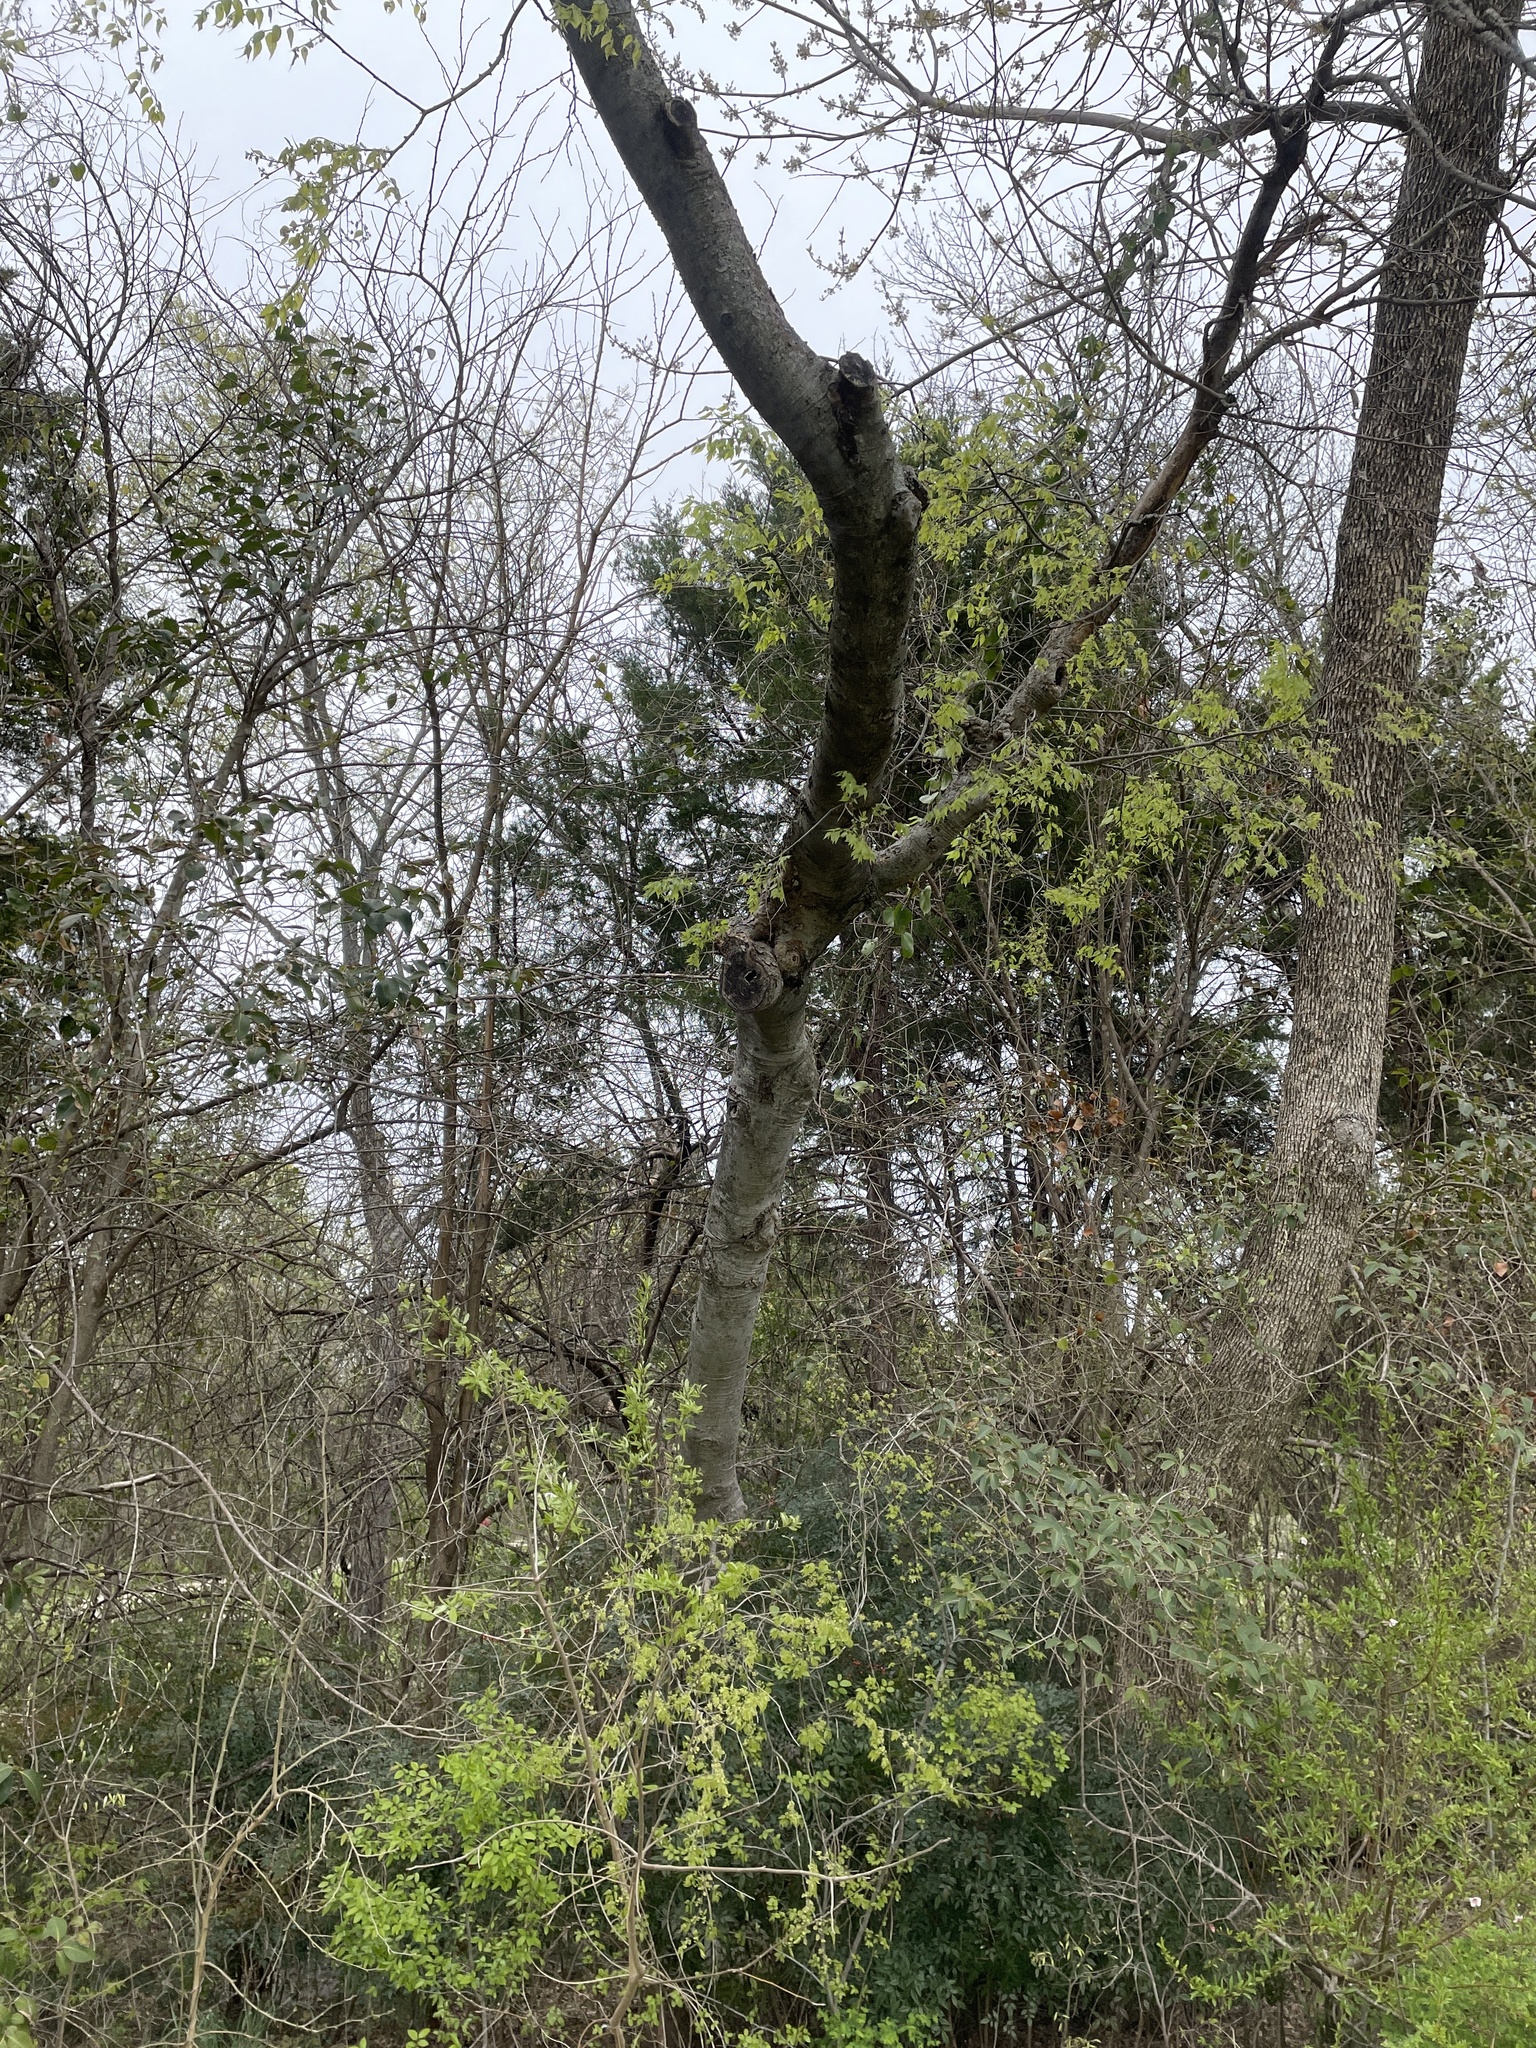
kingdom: Plantae
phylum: Tracheophyta
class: Magnoliopsida
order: Rosales
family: Cannabaceae
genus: Celtis
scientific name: Celtis laevigata
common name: Sugarberry
